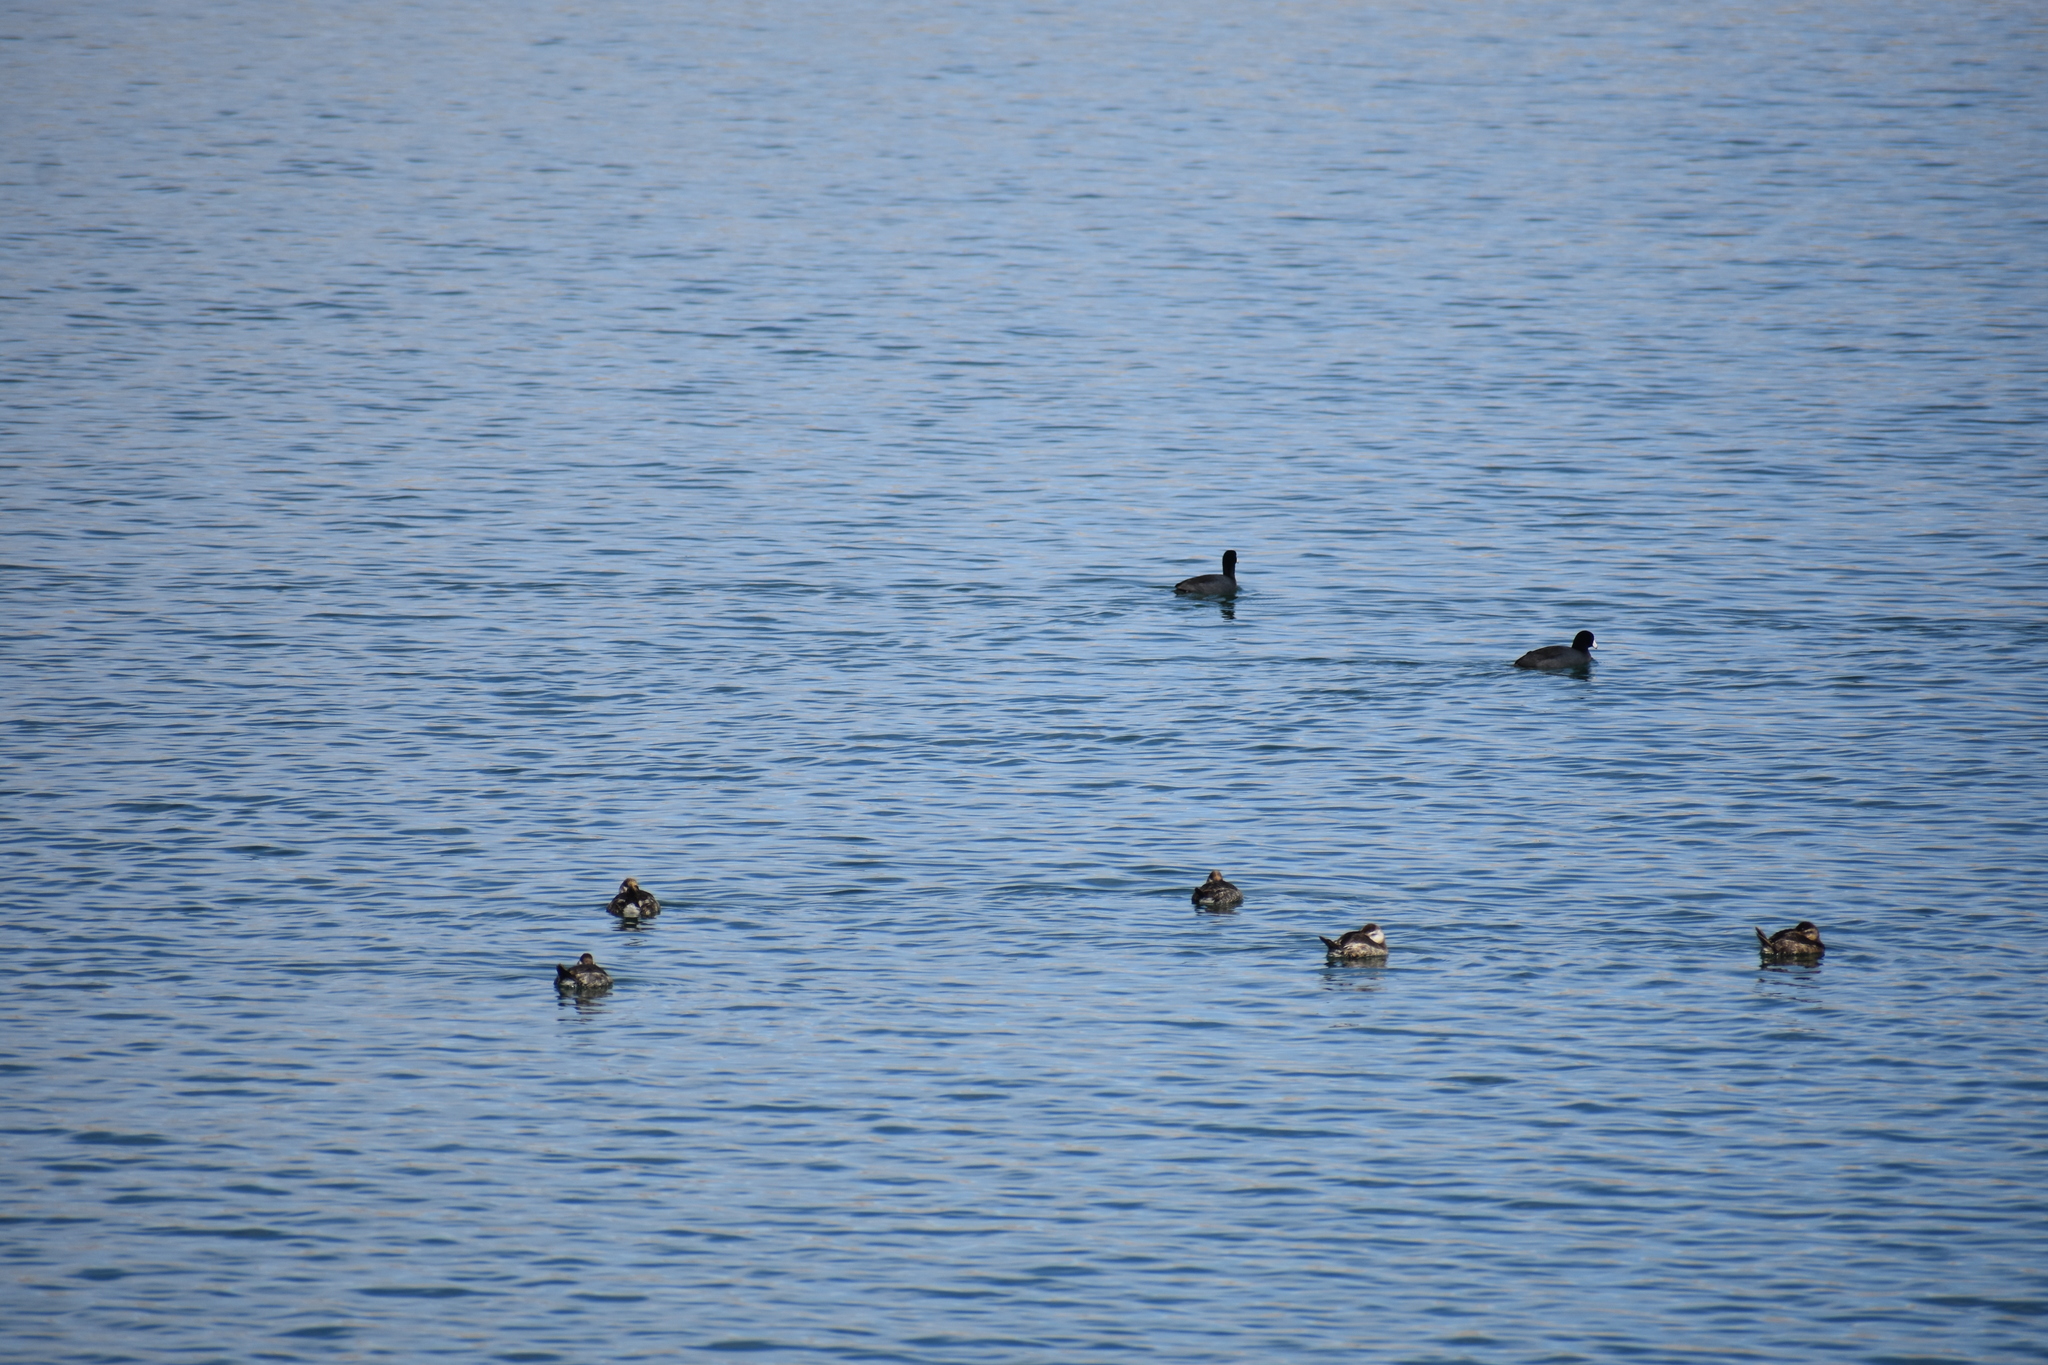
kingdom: Animalia
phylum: Chordata
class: Aves
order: Gruiformes
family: Rallidae
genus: Fulica
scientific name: Fulica americana
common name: American coot
